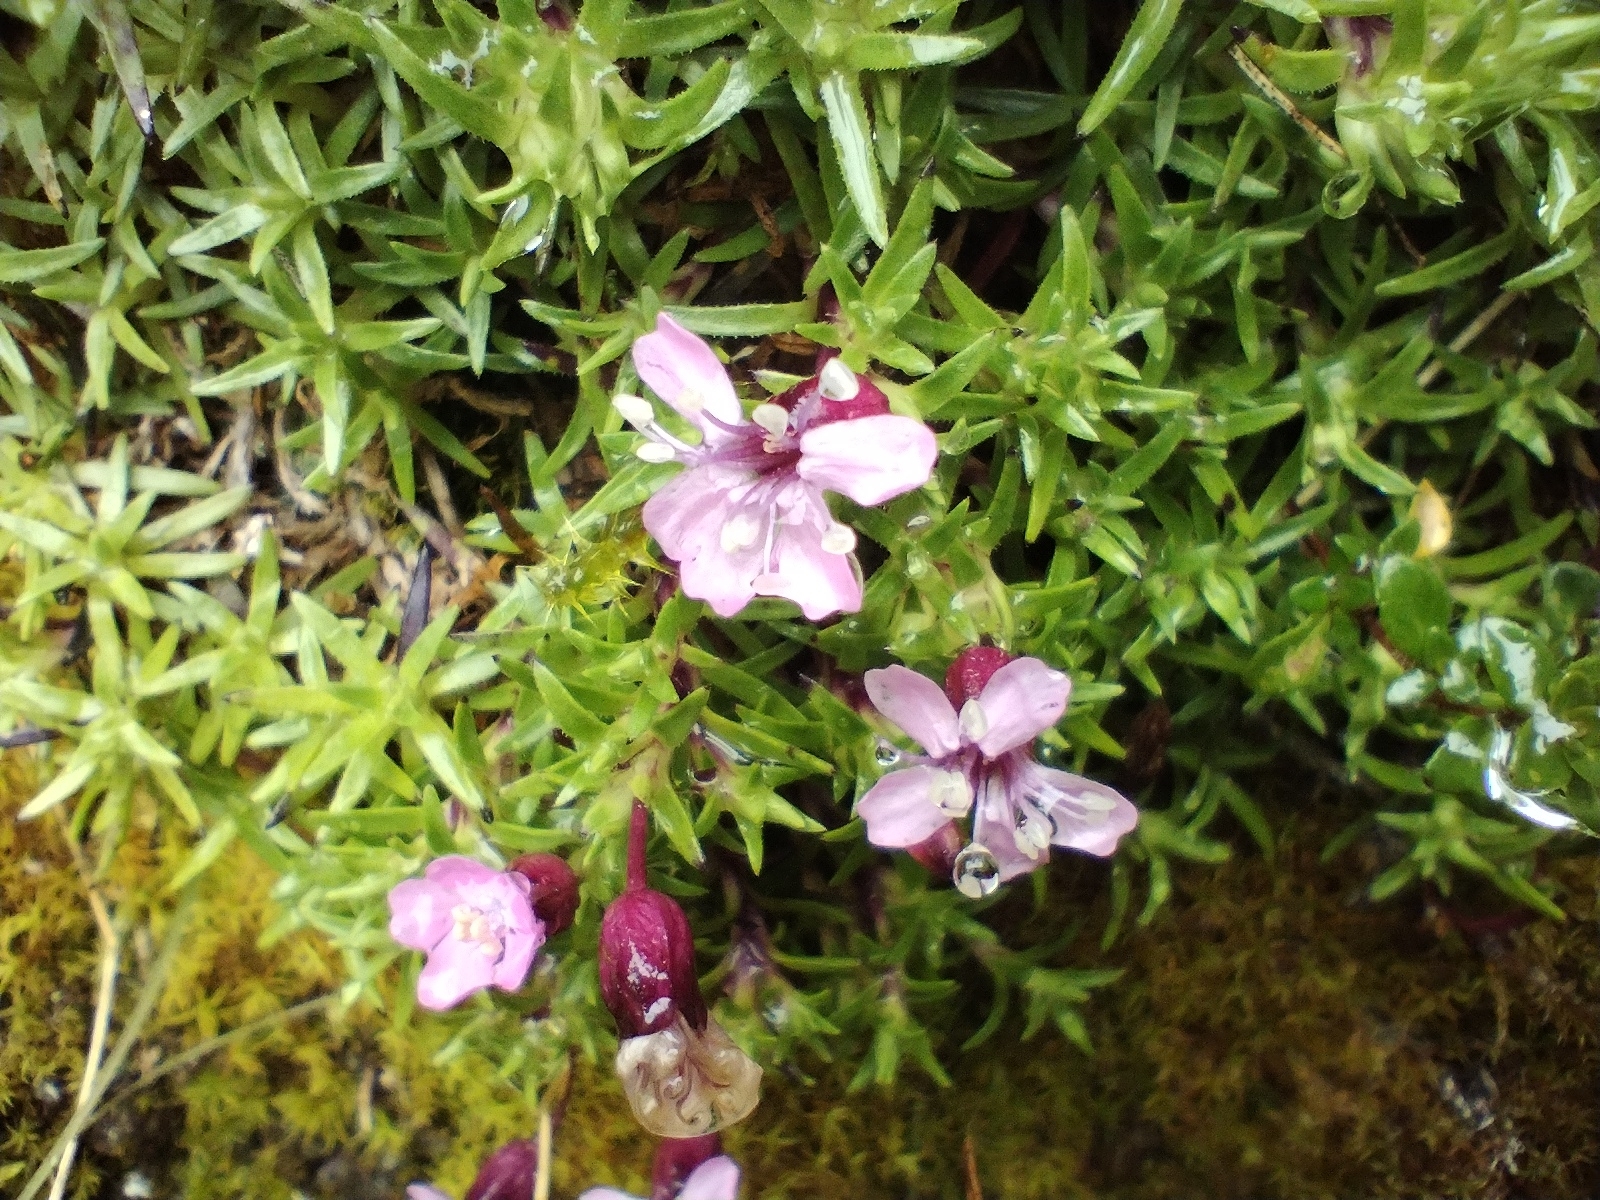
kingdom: Plantae
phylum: Tracheophyta
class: Magnoliopsida
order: Caryophyllales
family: Caryophyllaceae
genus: Silene
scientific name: Silene acaulis
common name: Moss campion
